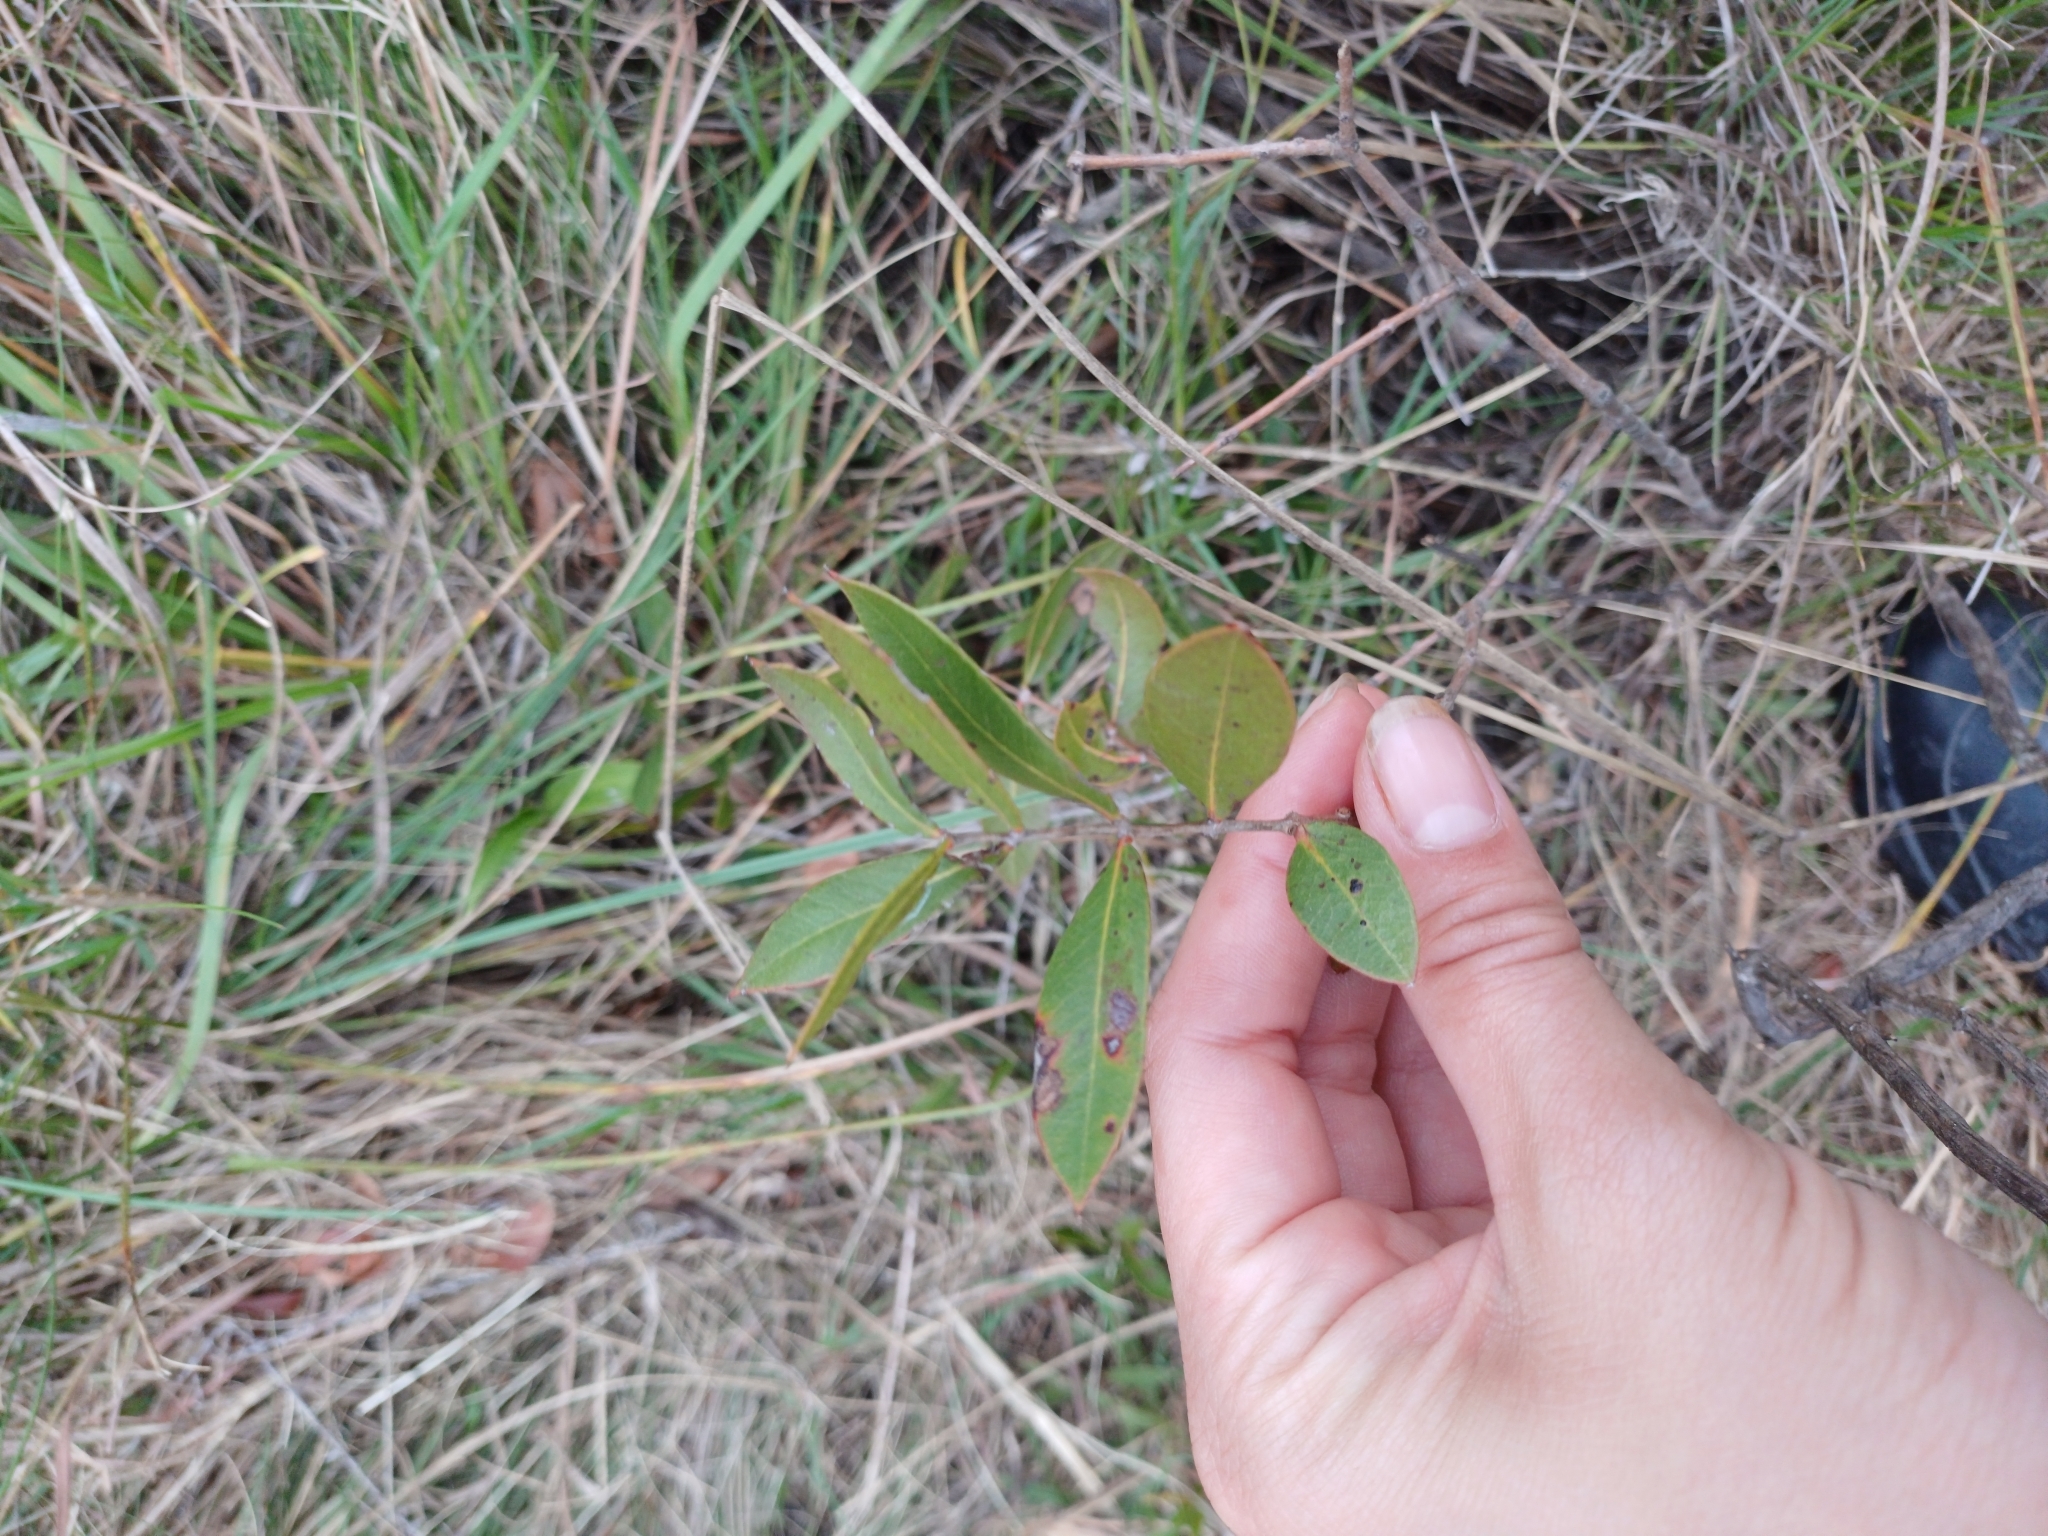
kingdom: Plantae
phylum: Tracheophyta
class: Magnoliopsida
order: Myrtales
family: Myrtaceae
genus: Psidium
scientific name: Psidium salutare
